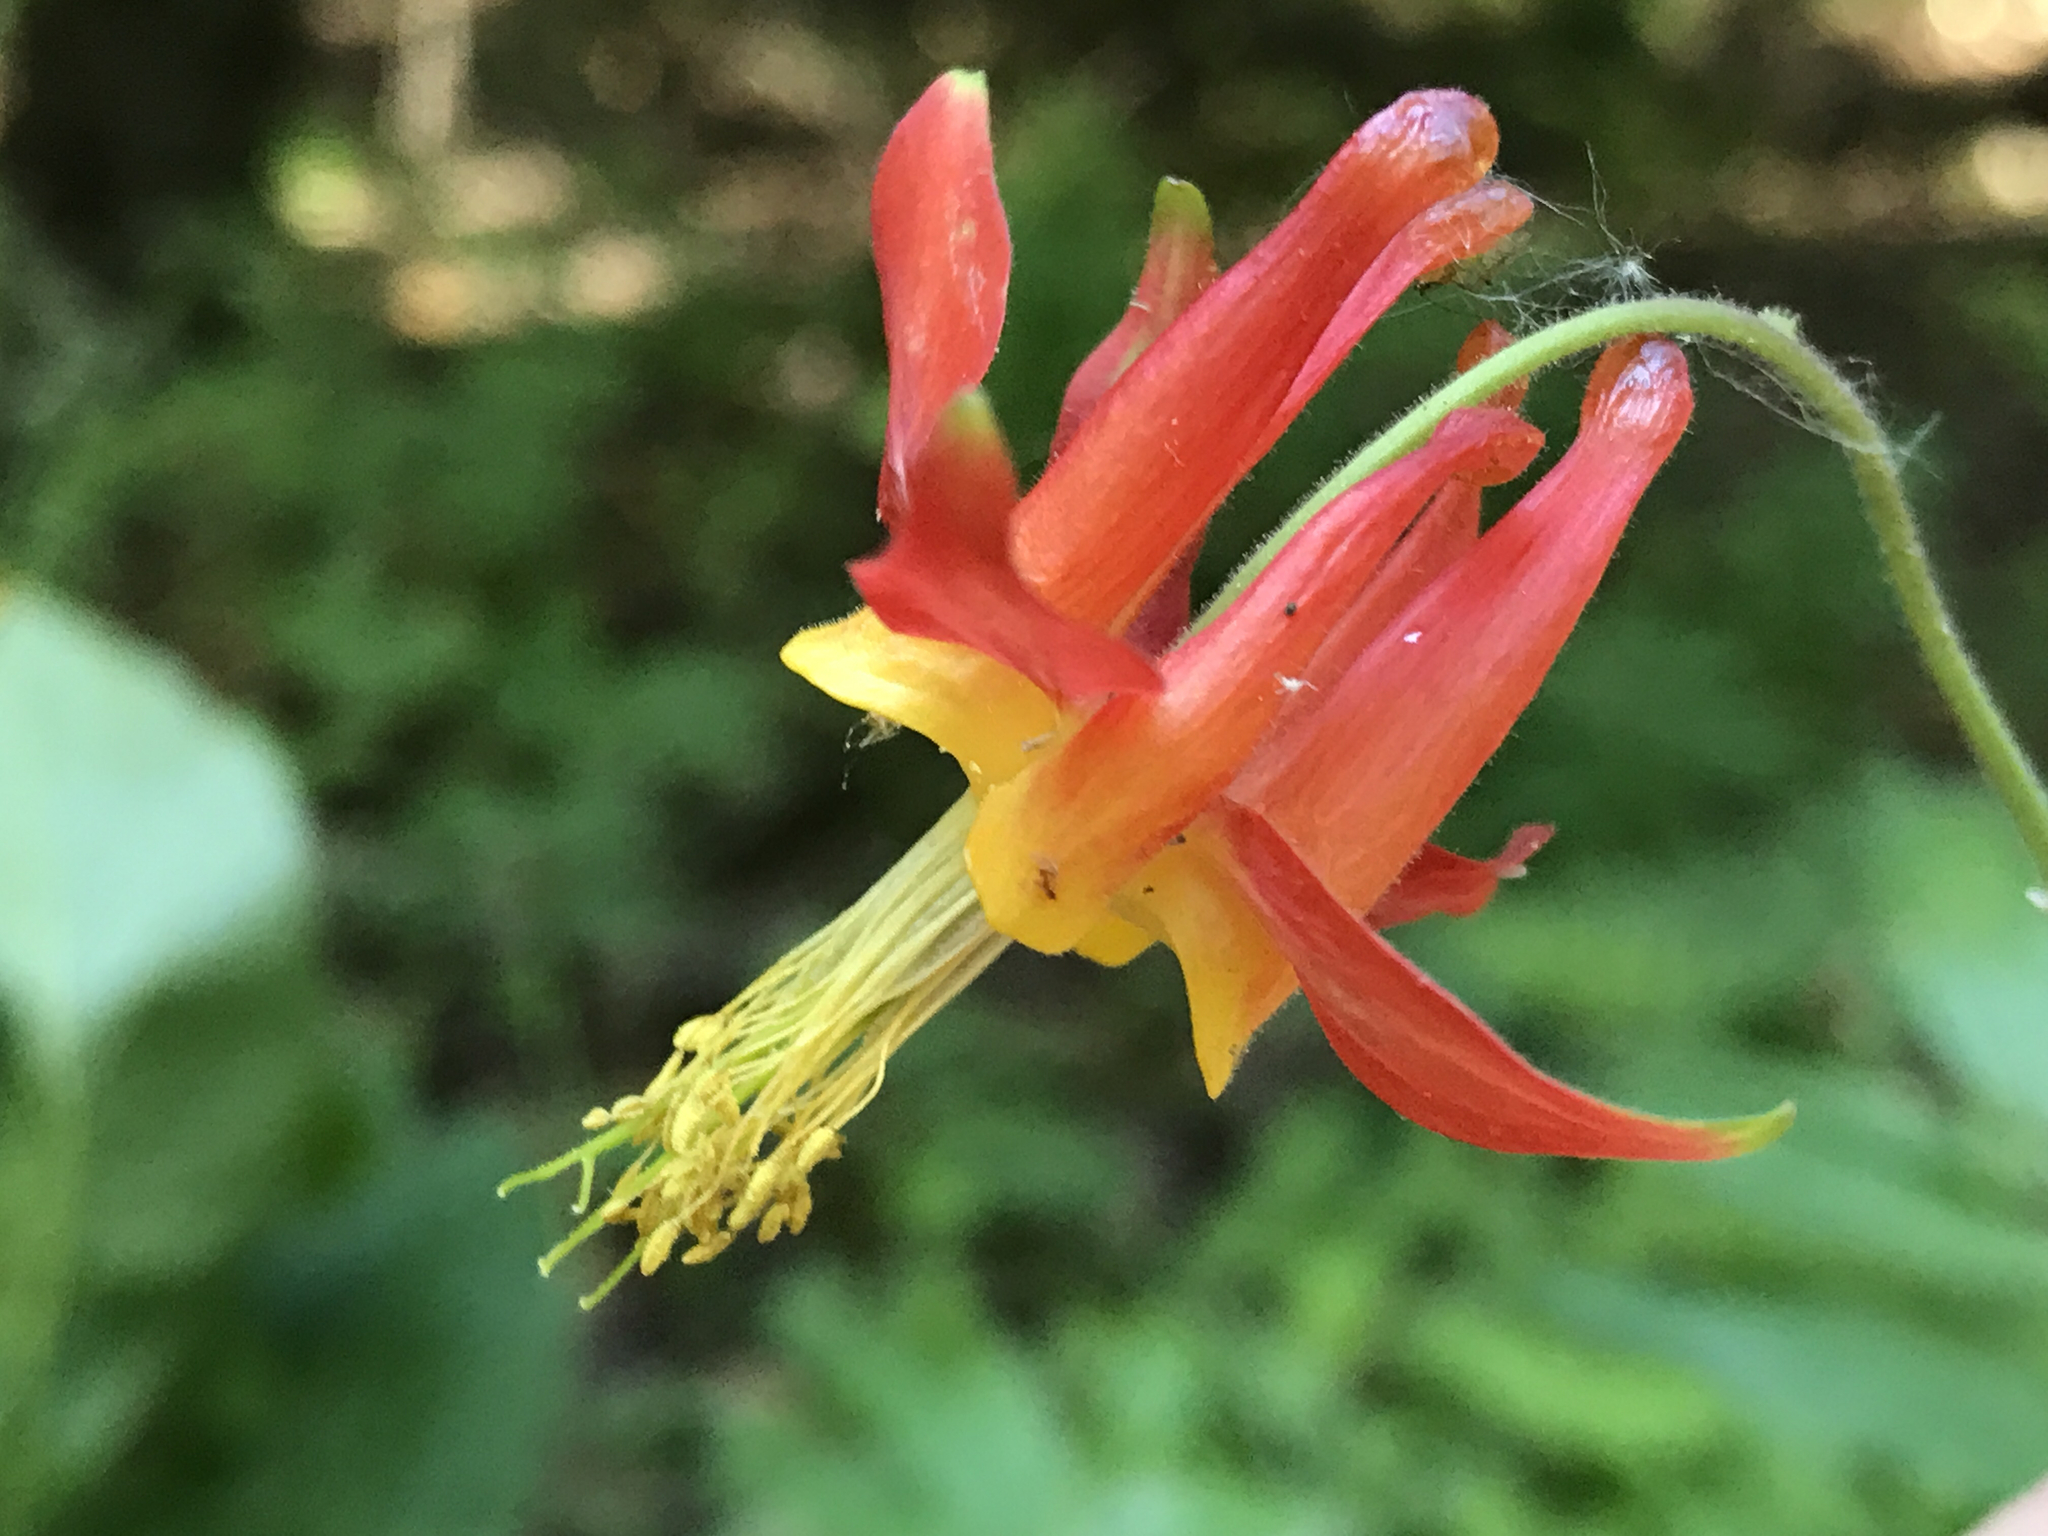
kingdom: Plantae
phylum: Tracheophyta
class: Magnoliopsida
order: Ranunculales
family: Ranunculaceae
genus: Aquilegia
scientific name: Aquilegia formosa
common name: Sitka columbine
